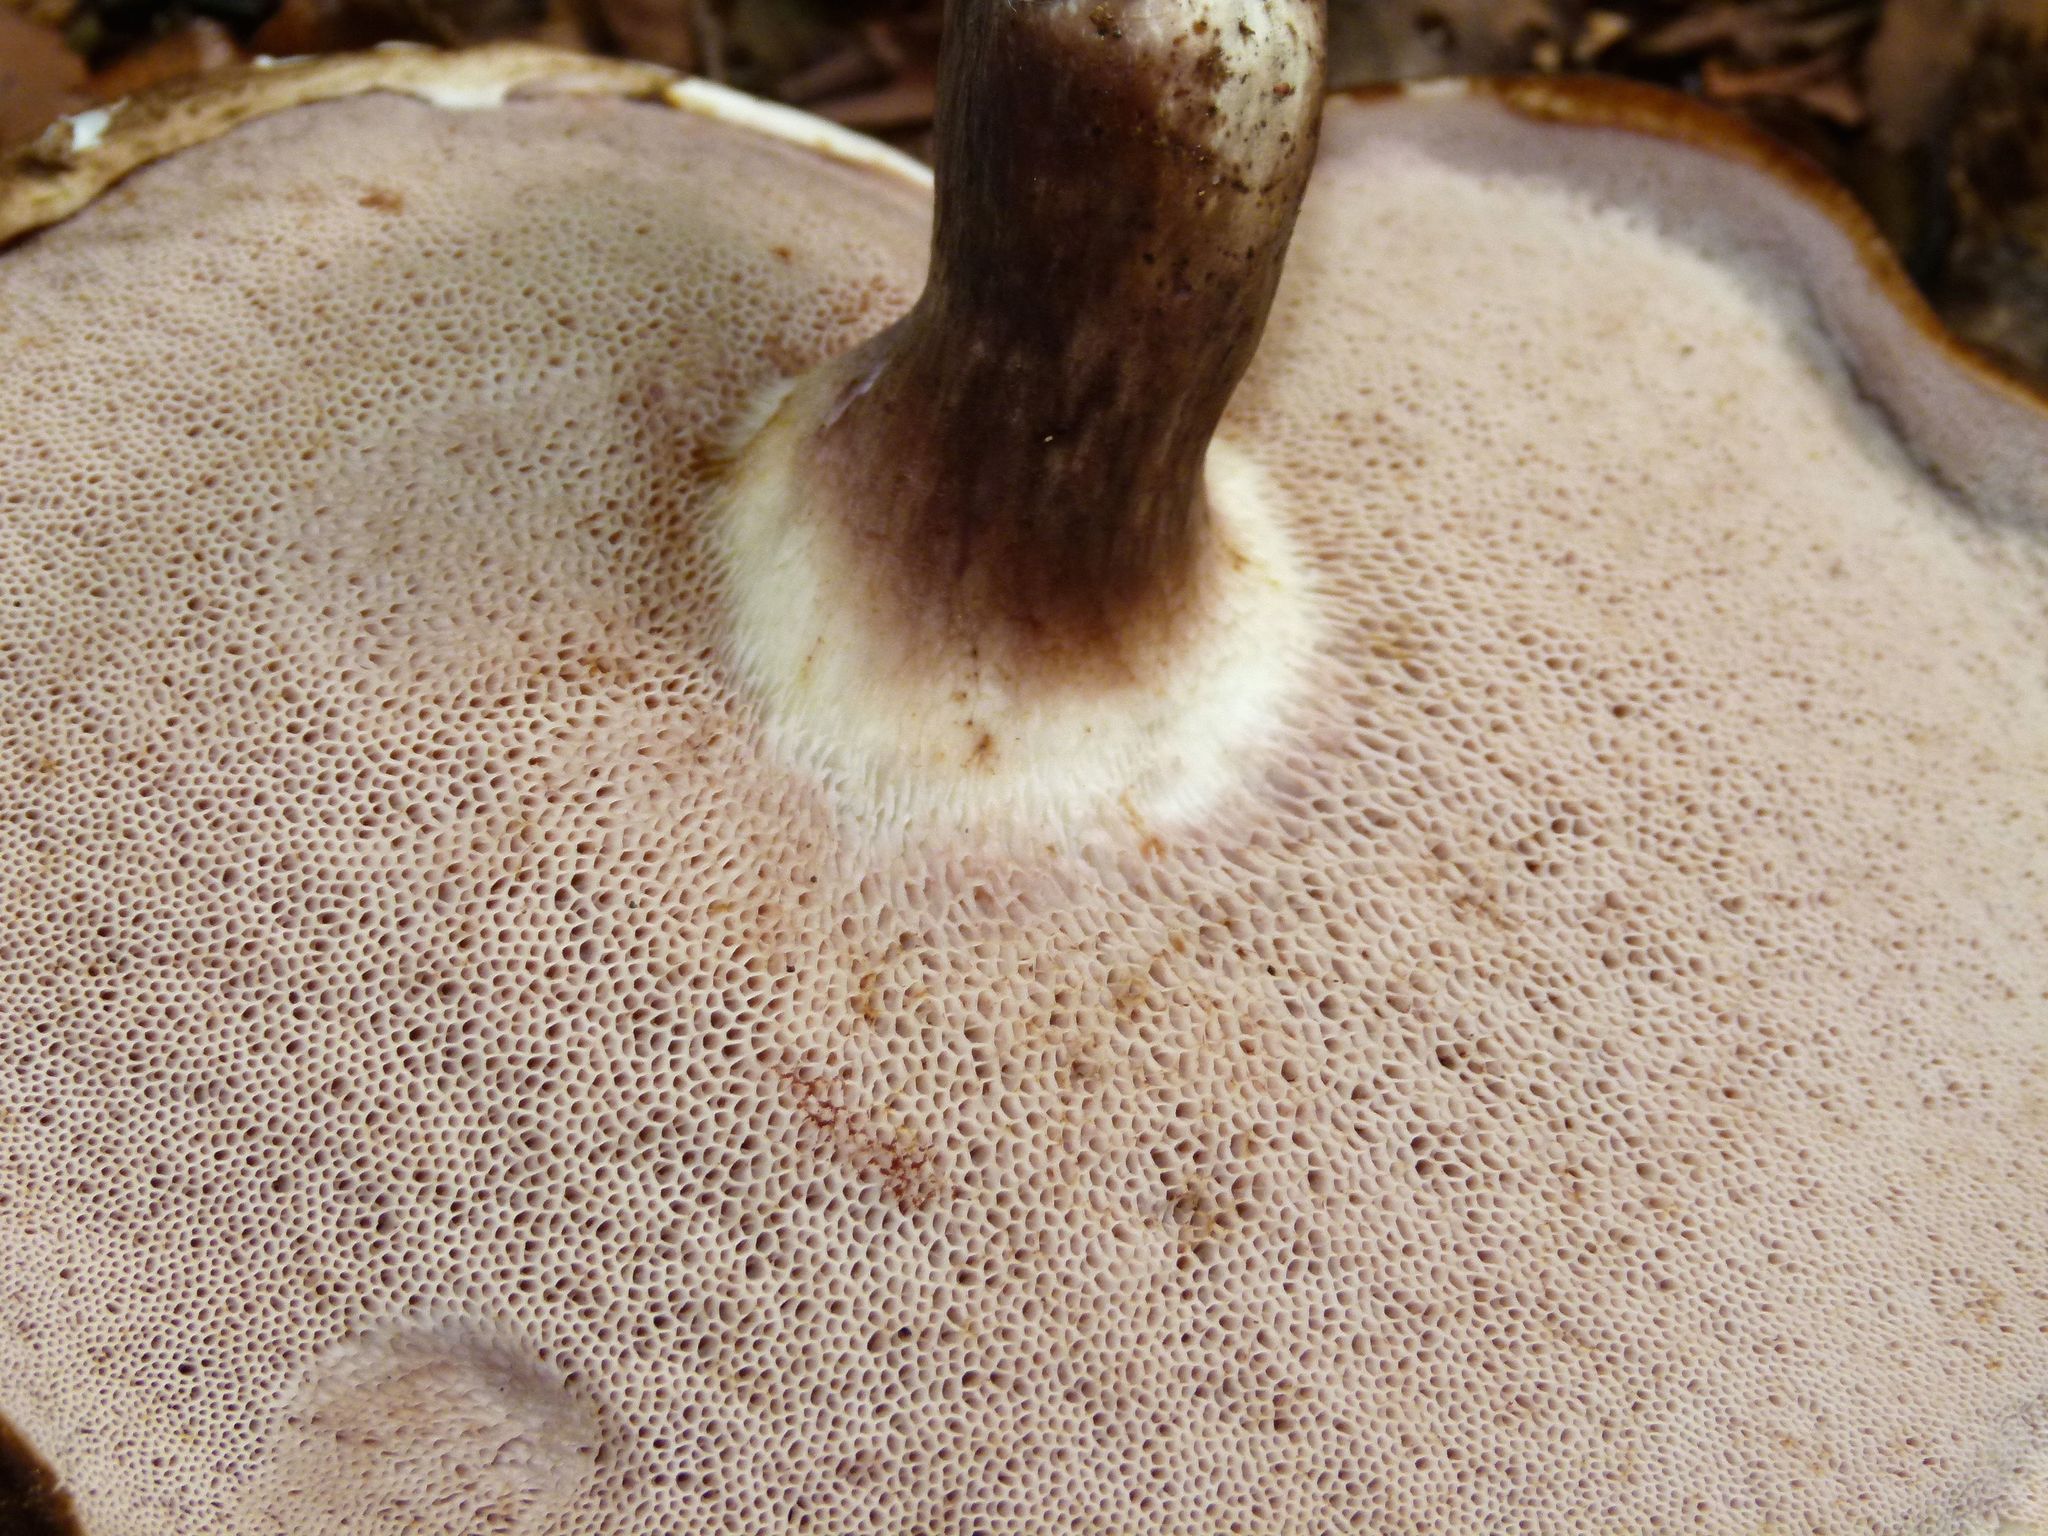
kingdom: Fungi
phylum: Basidiomycota
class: Agaricomycetes
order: Boletales
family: Boletaceae
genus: Porphyrellus
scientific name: Porphyrellus formosus
